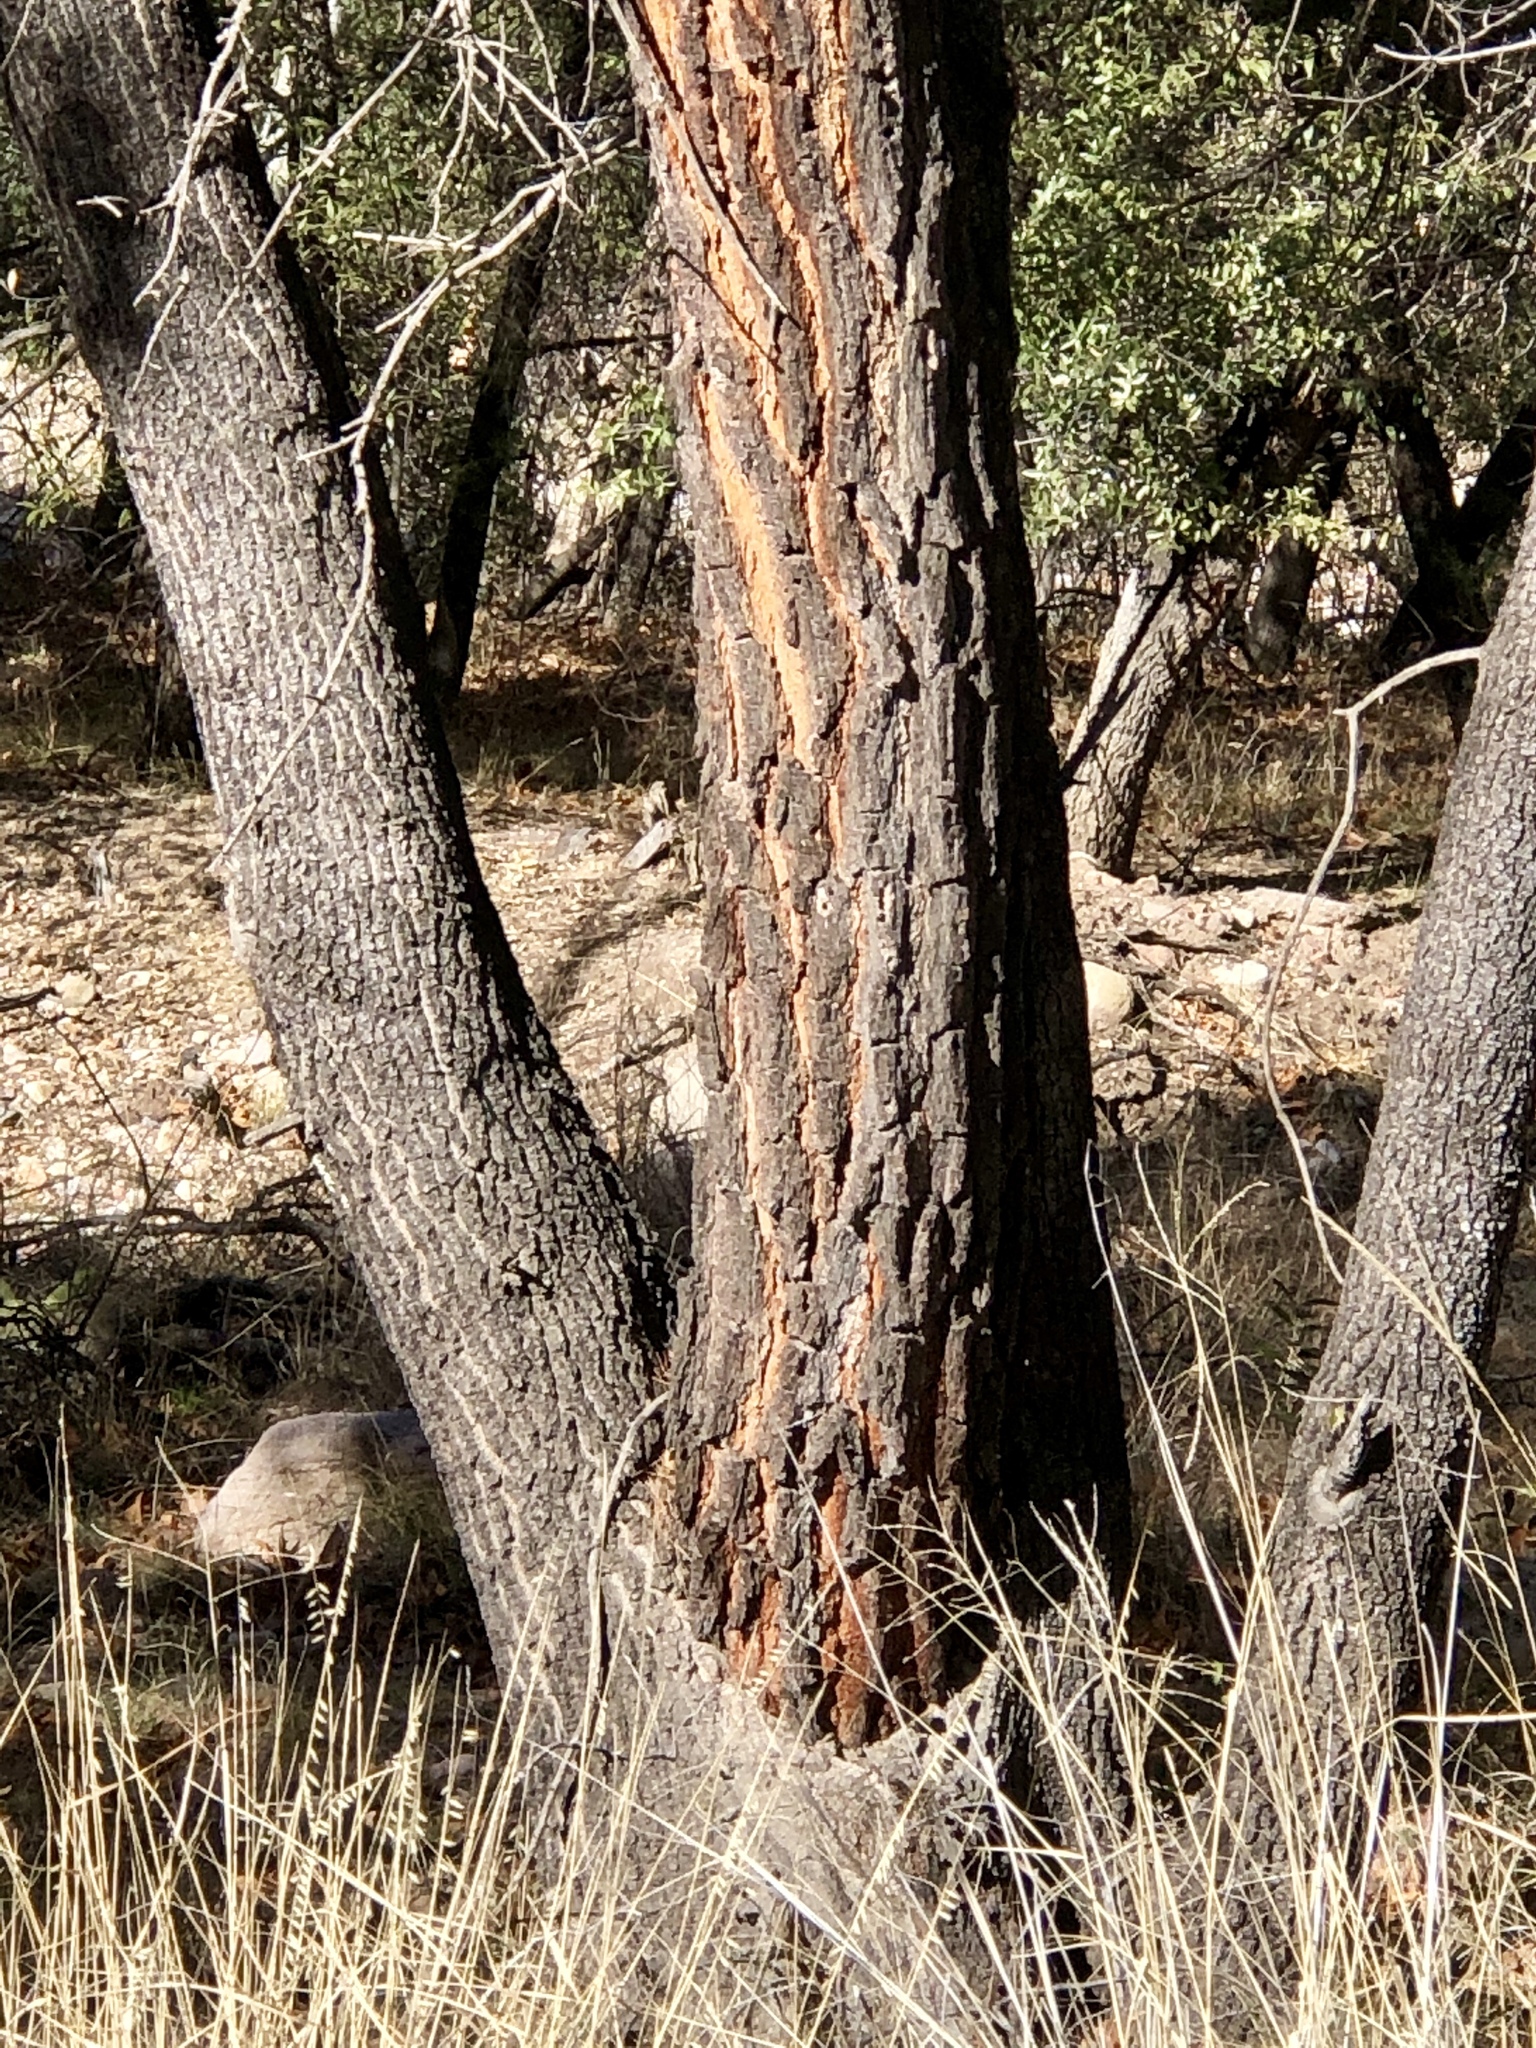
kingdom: Plantae
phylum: Tracheophyta
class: Pinopsida
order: Pinales
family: Pinaceae
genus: Pinus
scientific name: Pinus leiophylla
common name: Chihuahua pine
